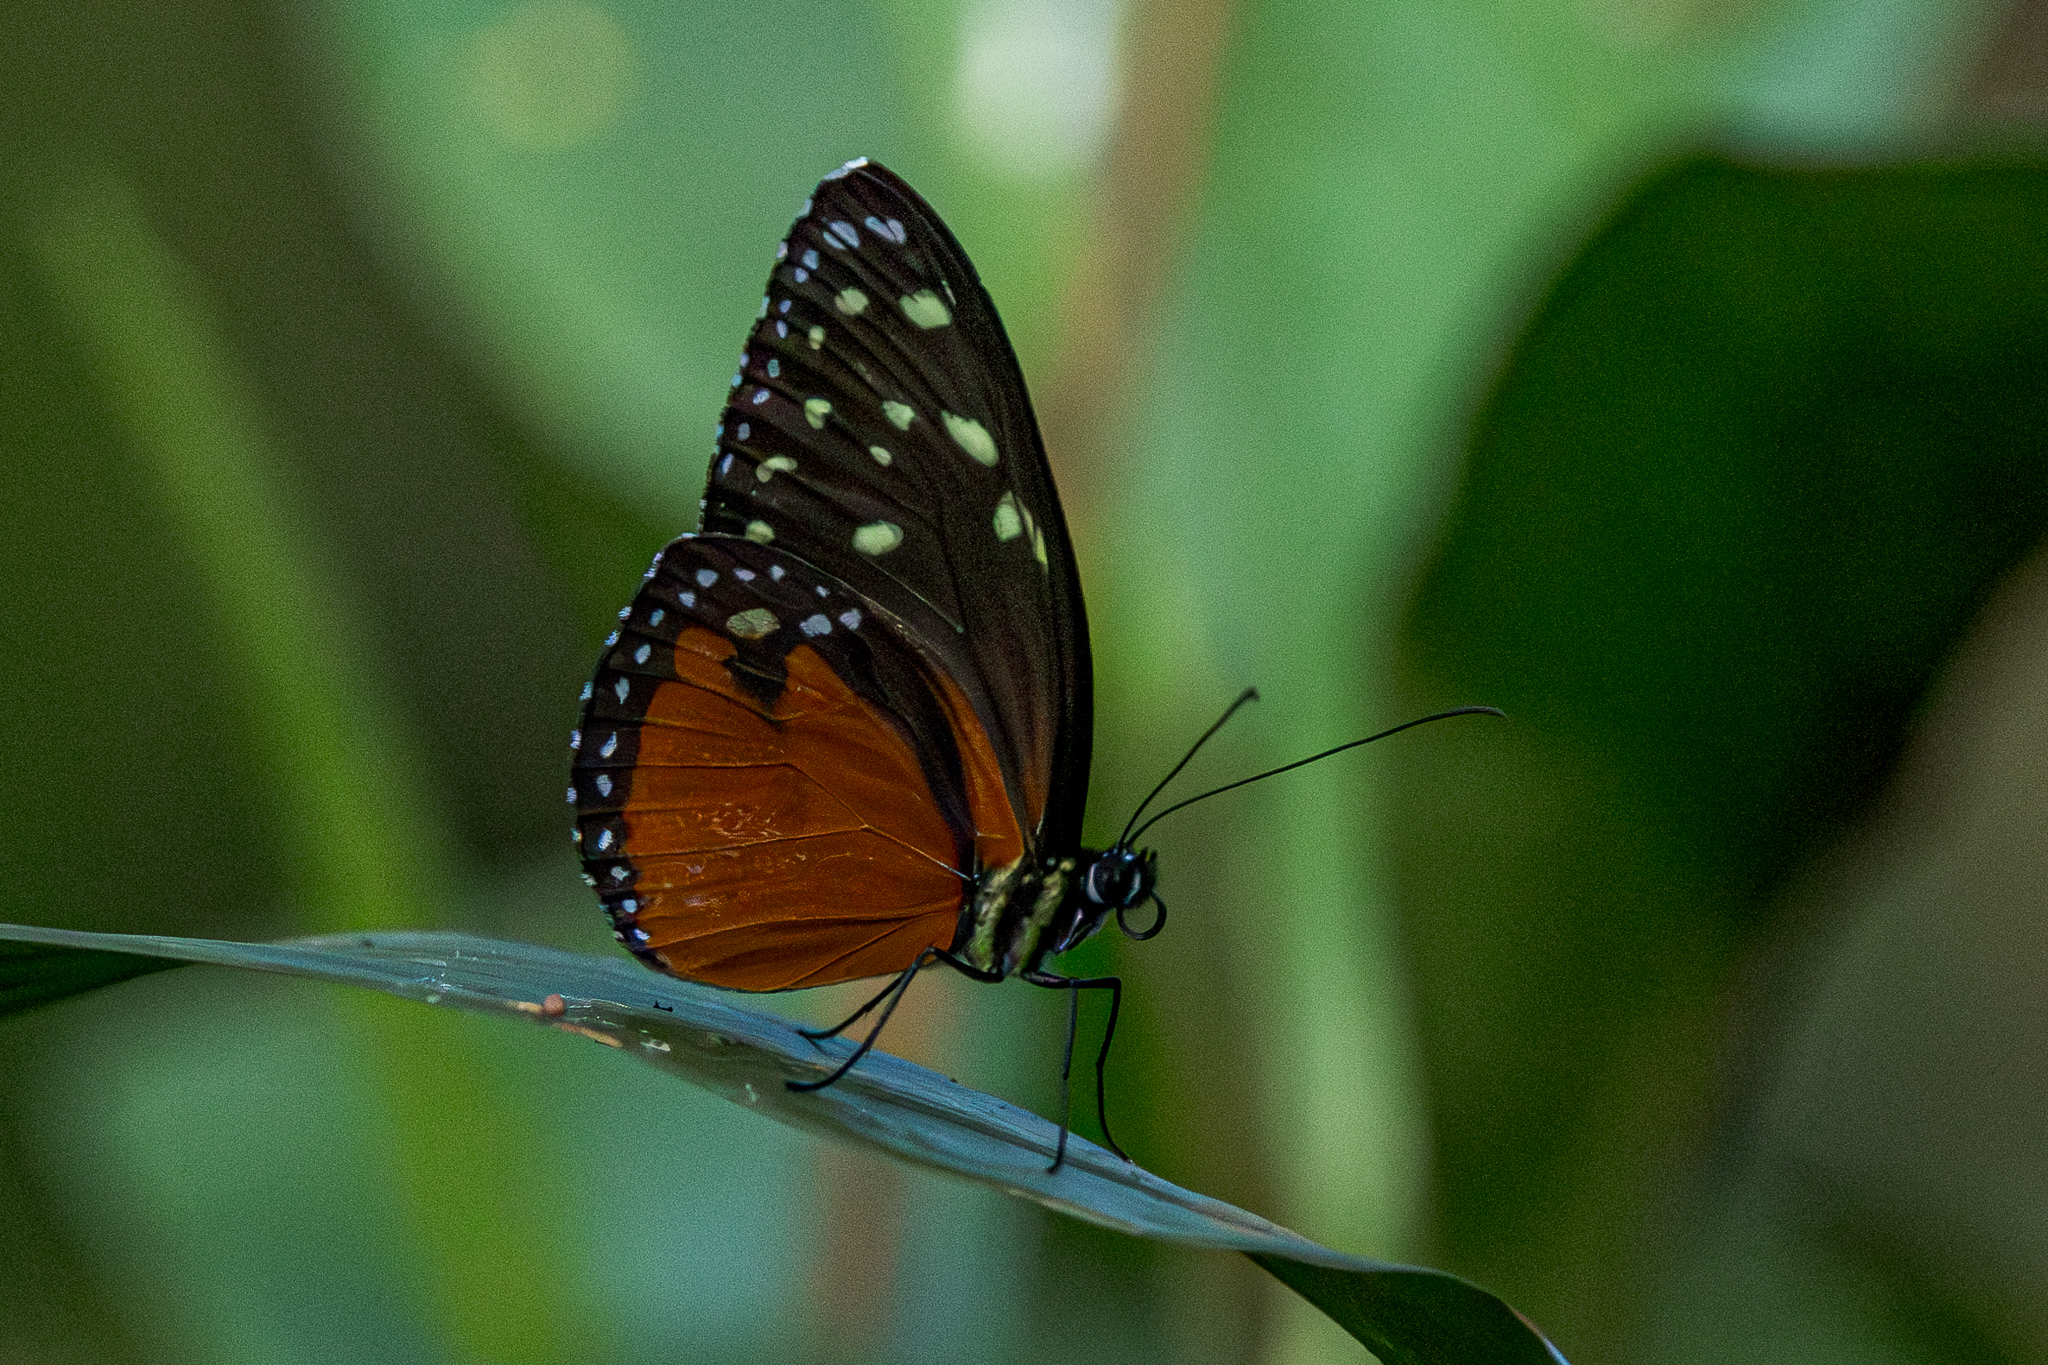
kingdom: Animalia
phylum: Arthropoda
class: Insecta
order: Lepidoptera
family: Nymphalidae
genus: Tithorea
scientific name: Tithorea tarricina
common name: Cream-spotted tigerwing
